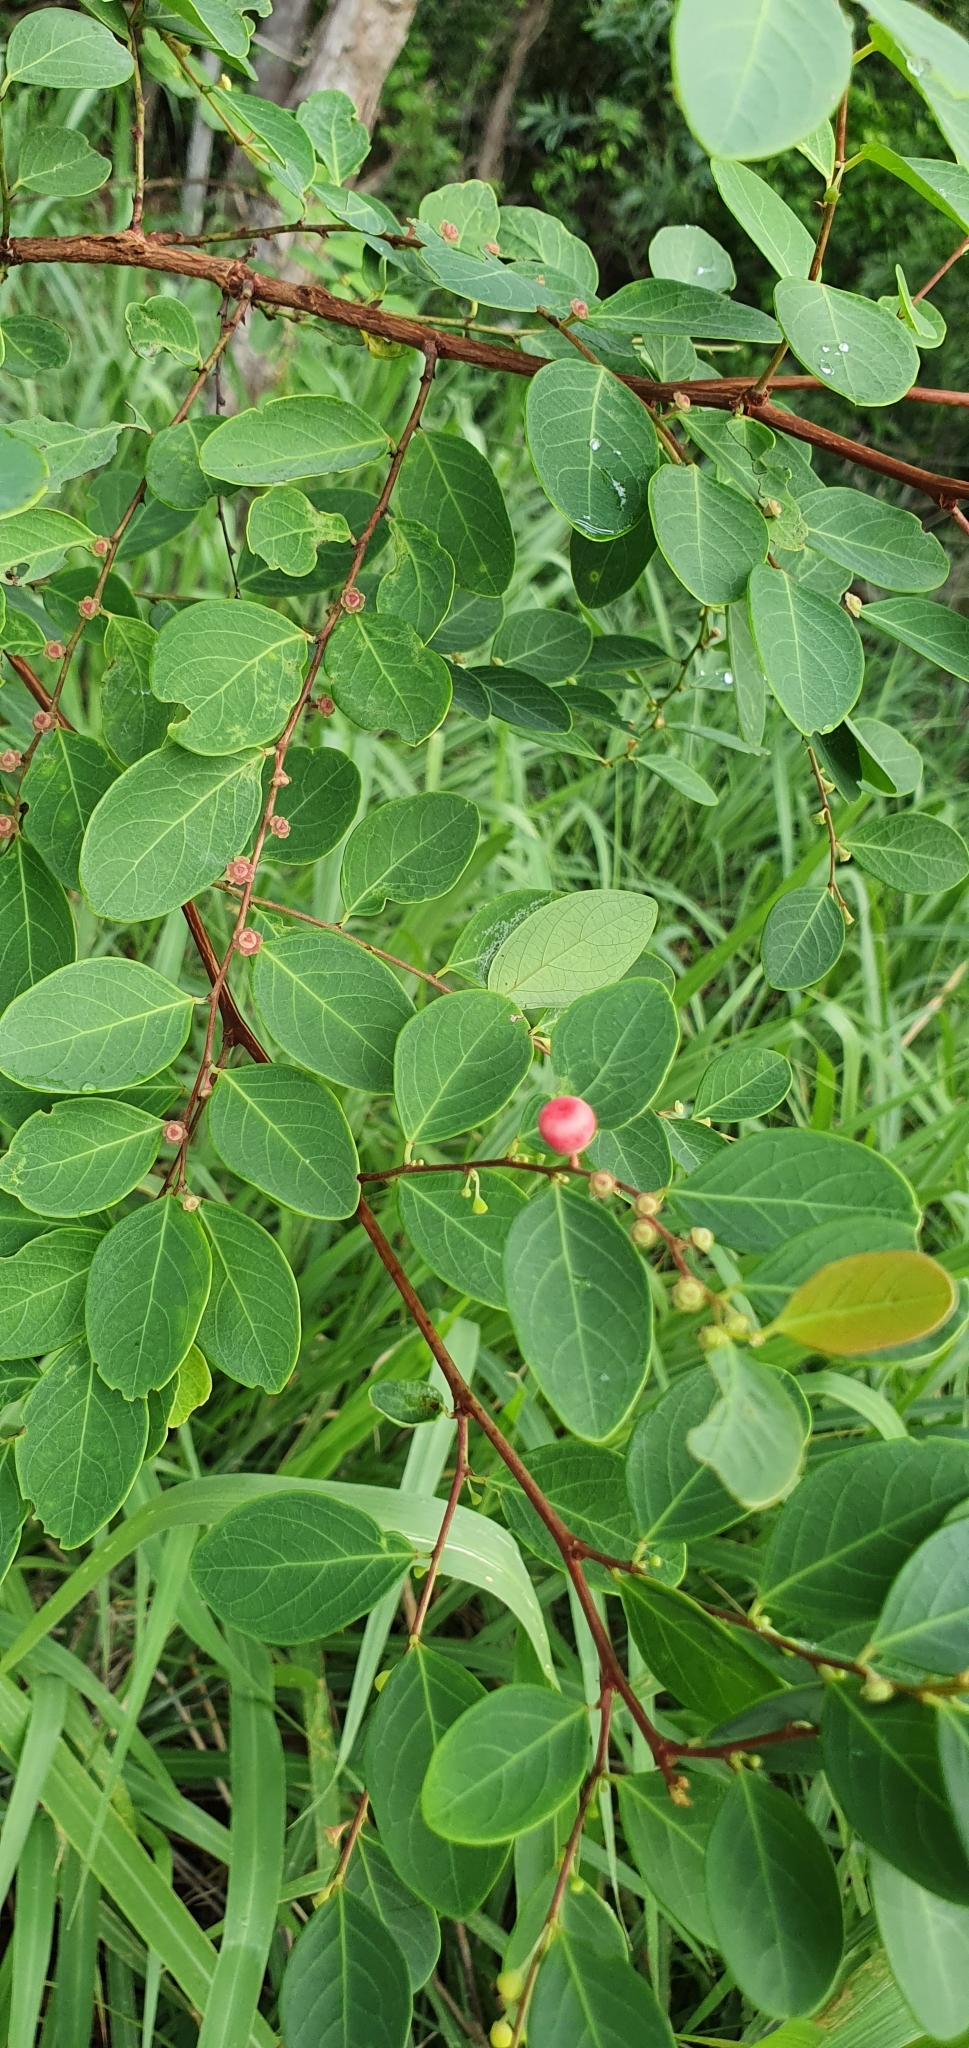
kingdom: Plantae
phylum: Tracheophyta
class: Magnoliopsida
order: Malpighiales
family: Phyllanthaceae
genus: Breynia
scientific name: Breynia oblongifolia
